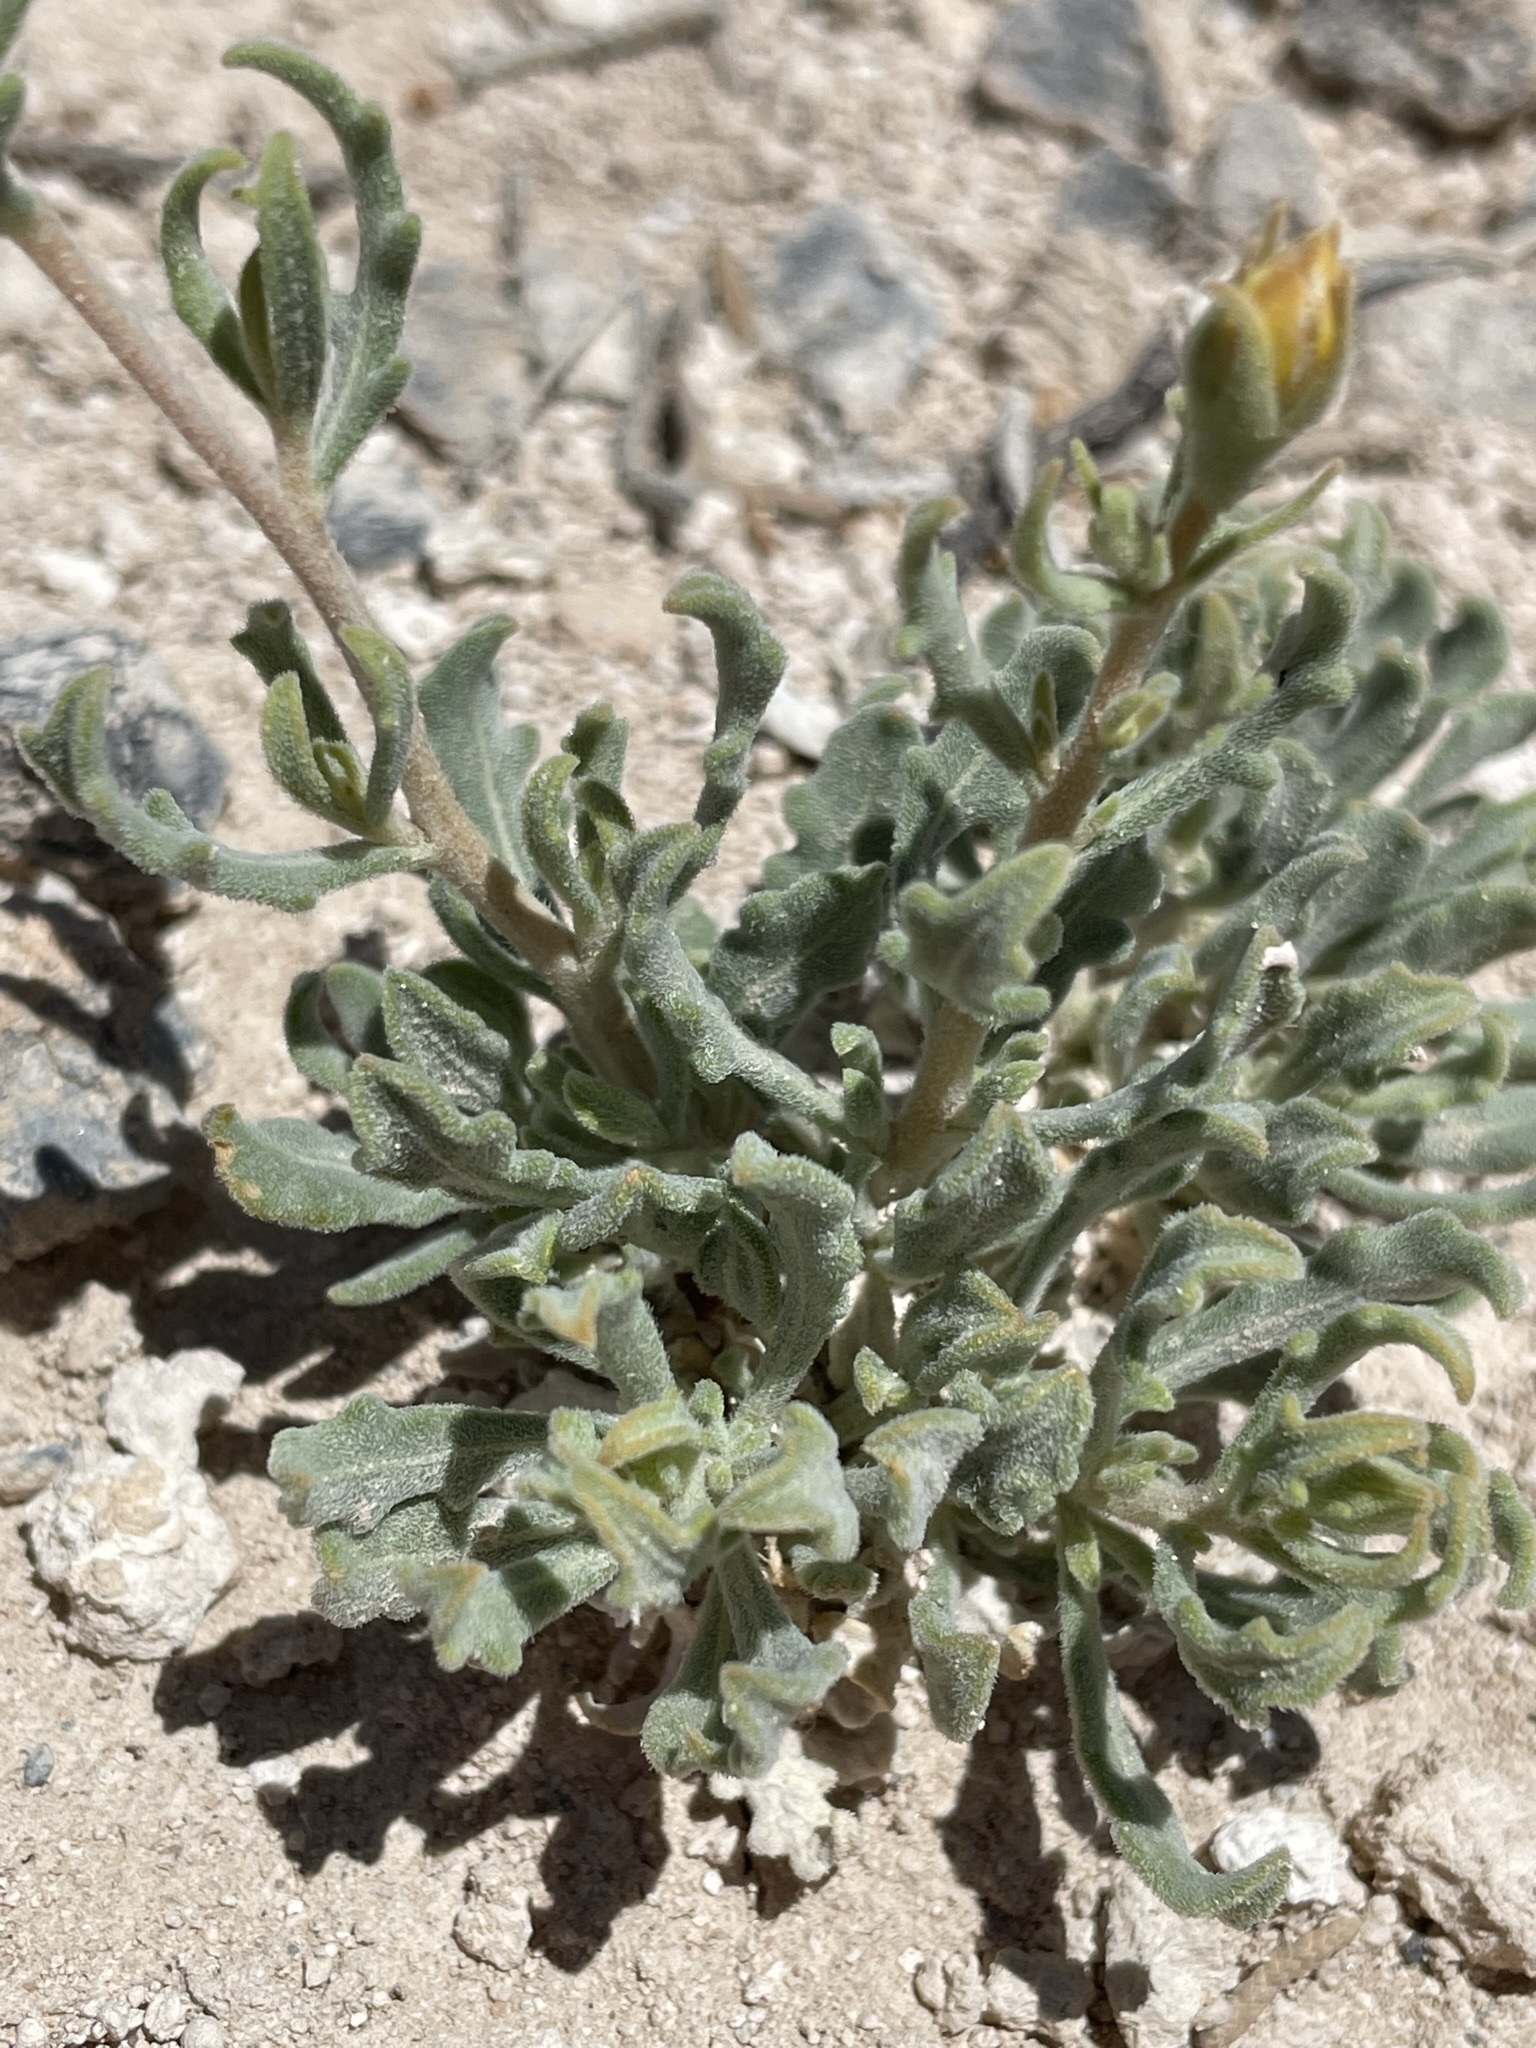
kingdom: Plantae
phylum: Tracheophyta
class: Magnoliopsida
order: Cornales
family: Loasaceae
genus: Mentzelia
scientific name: Mentzelia argillicola
